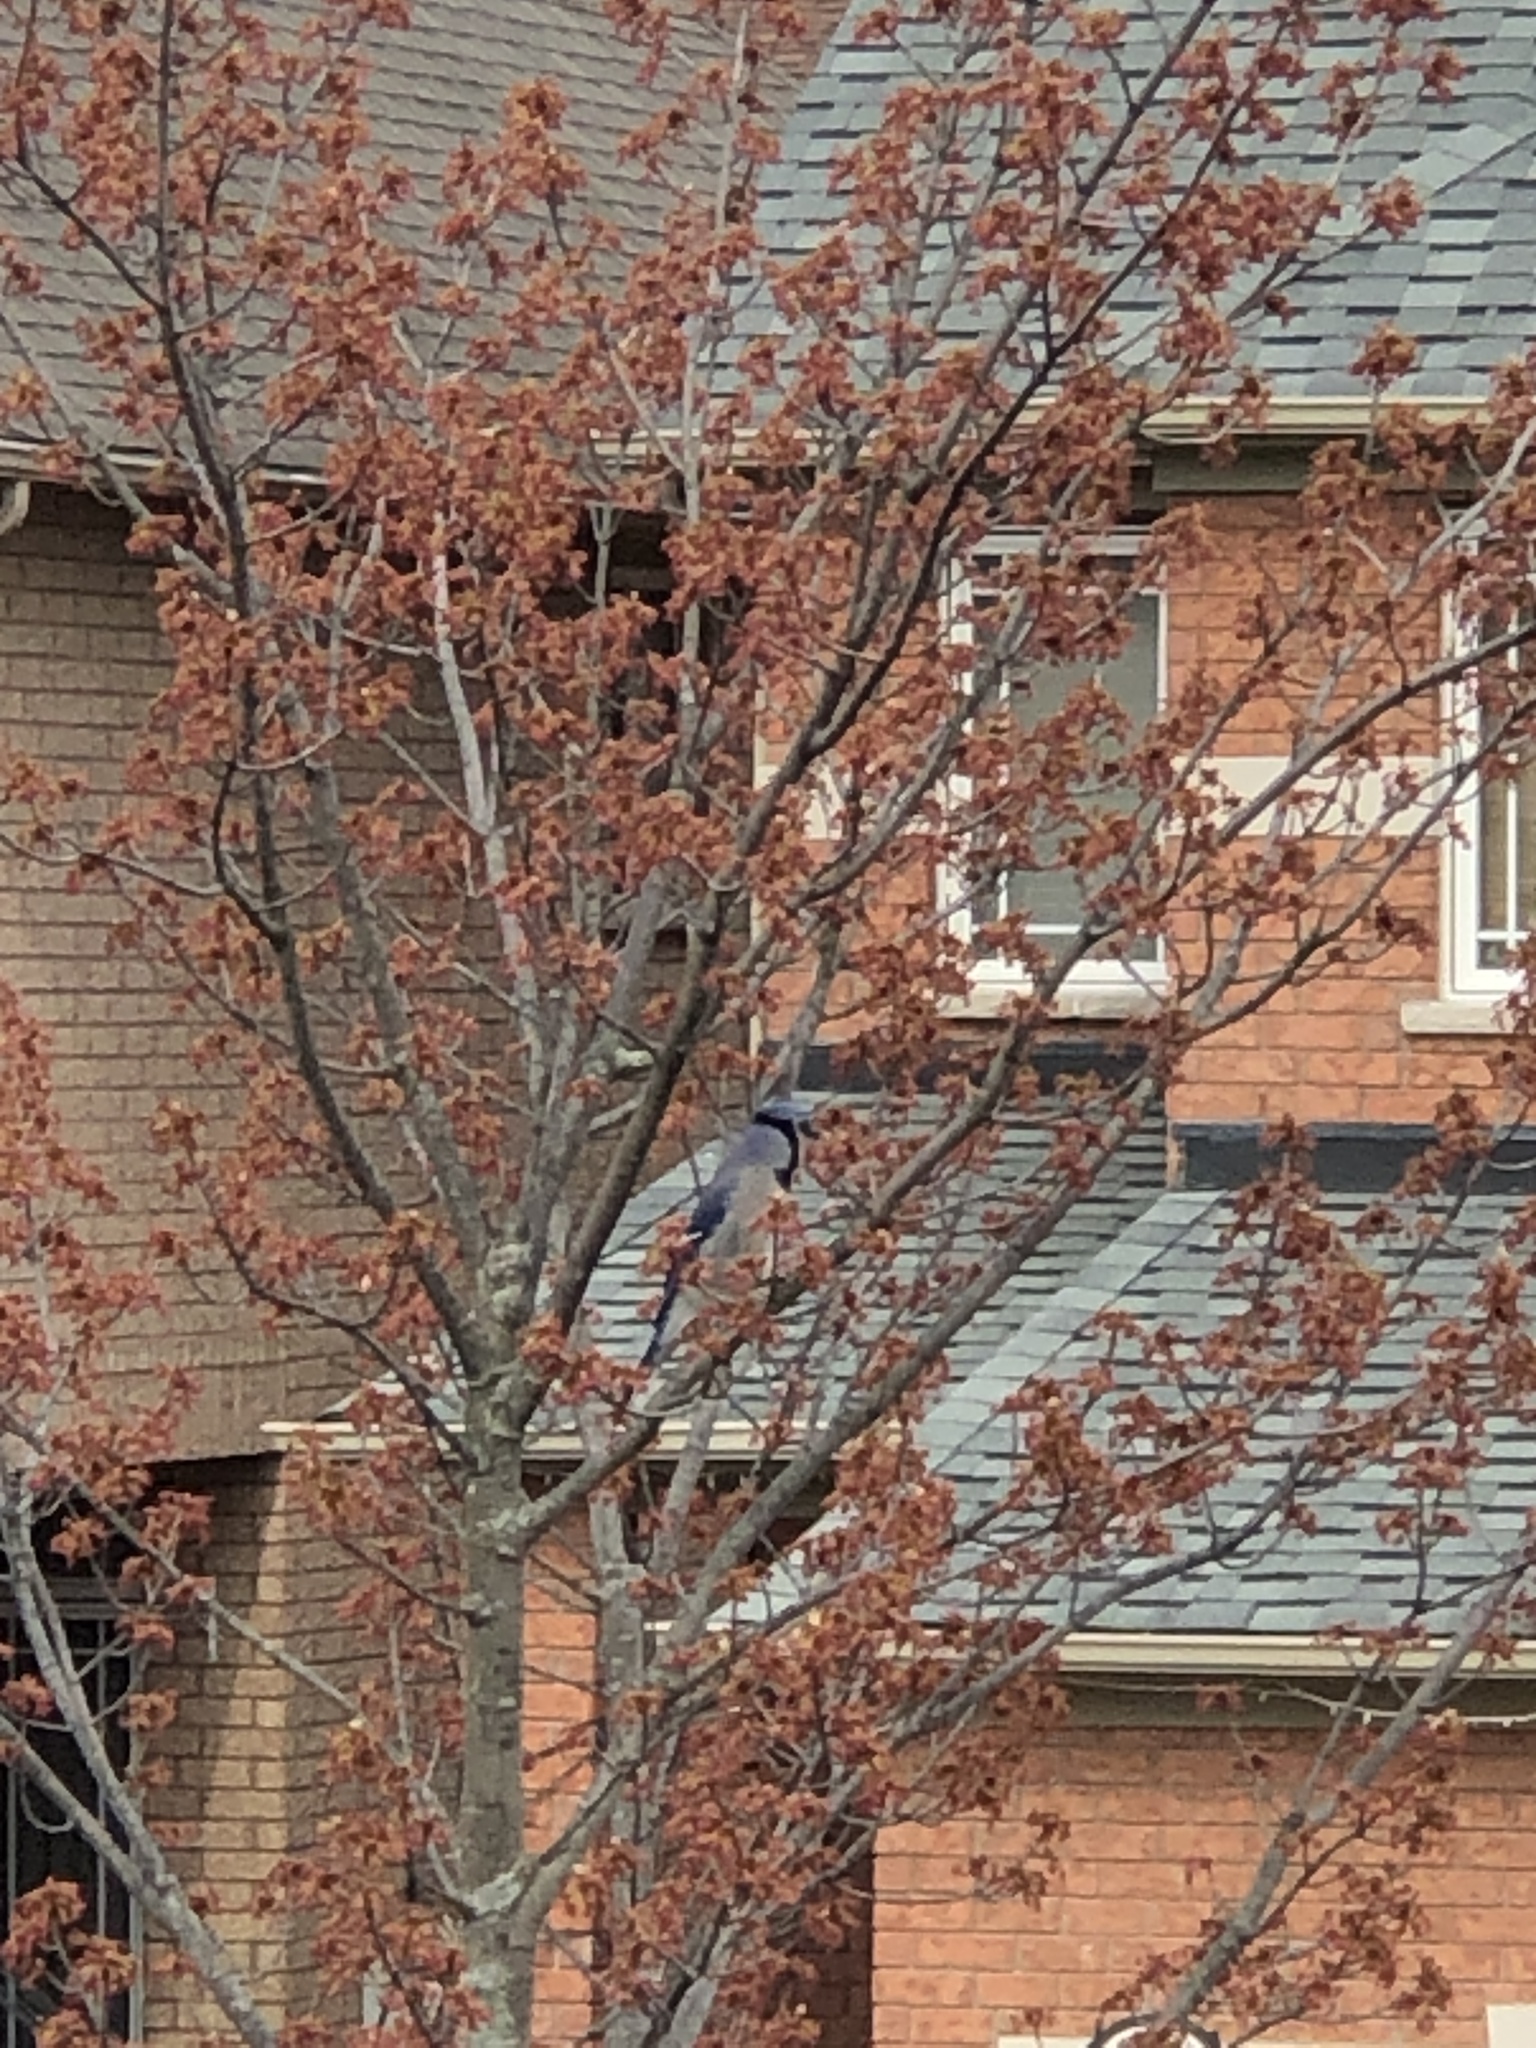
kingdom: Animalia
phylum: Chordata
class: Aves
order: Passeriformes
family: Corvidae
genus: Cyanocitta
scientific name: Cyanocitta cristata
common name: Blue jay
